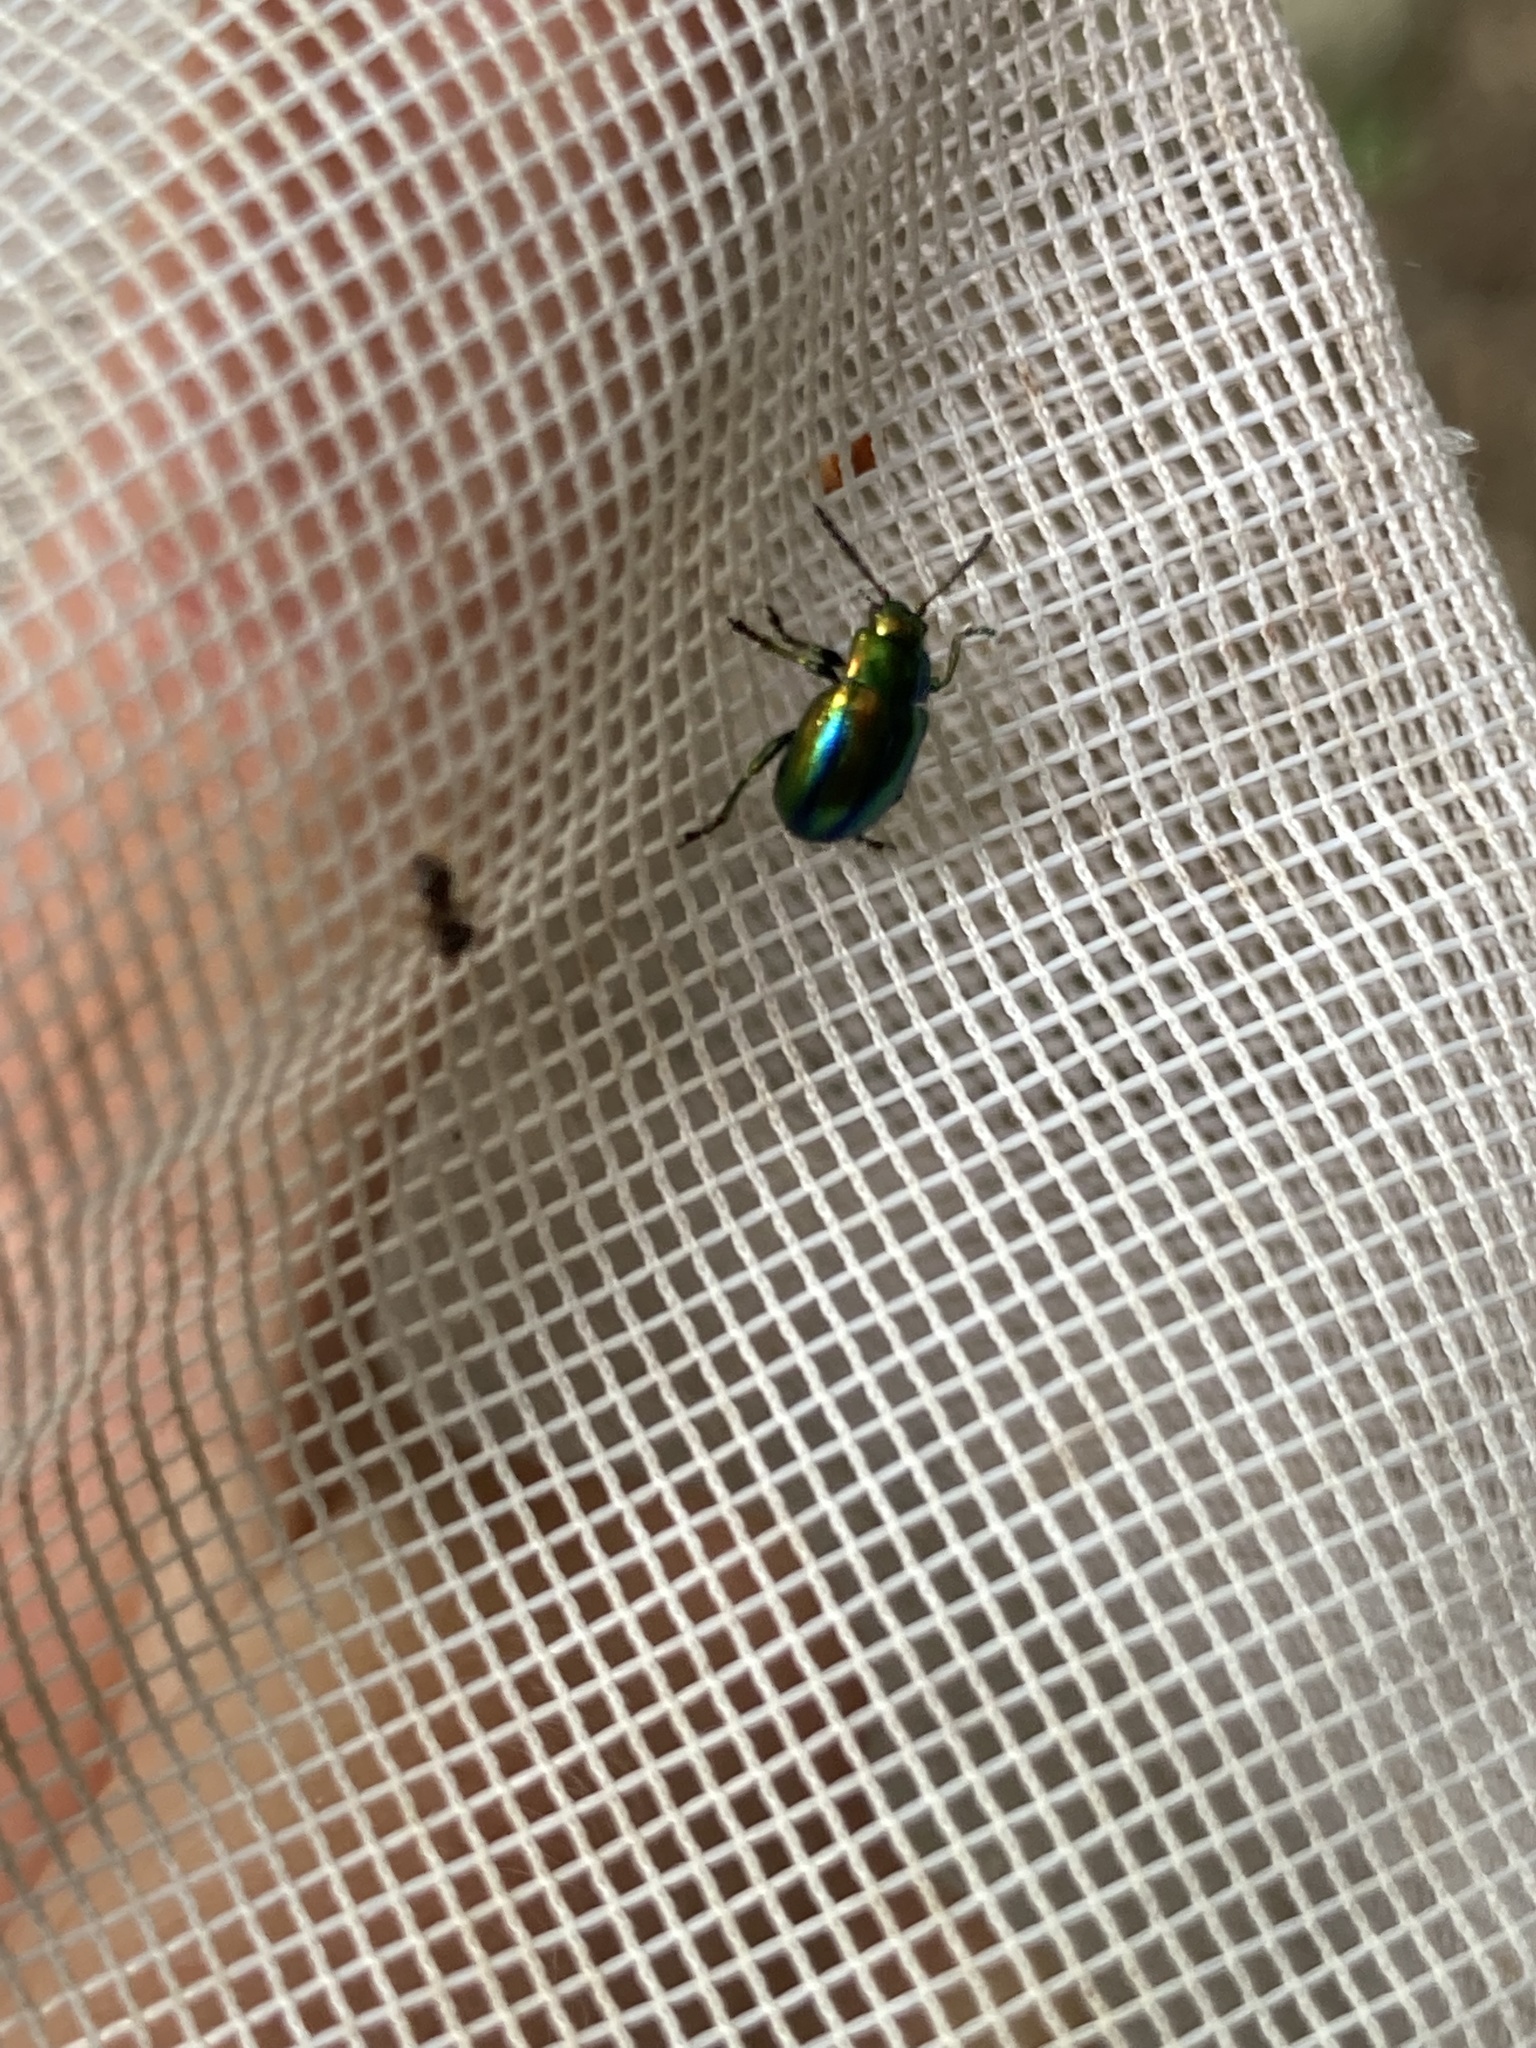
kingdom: Animalia
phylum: Arthropoda
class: Insecta
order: Coleoptera
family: Chrysomelidae
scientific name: Chrysomelidae
